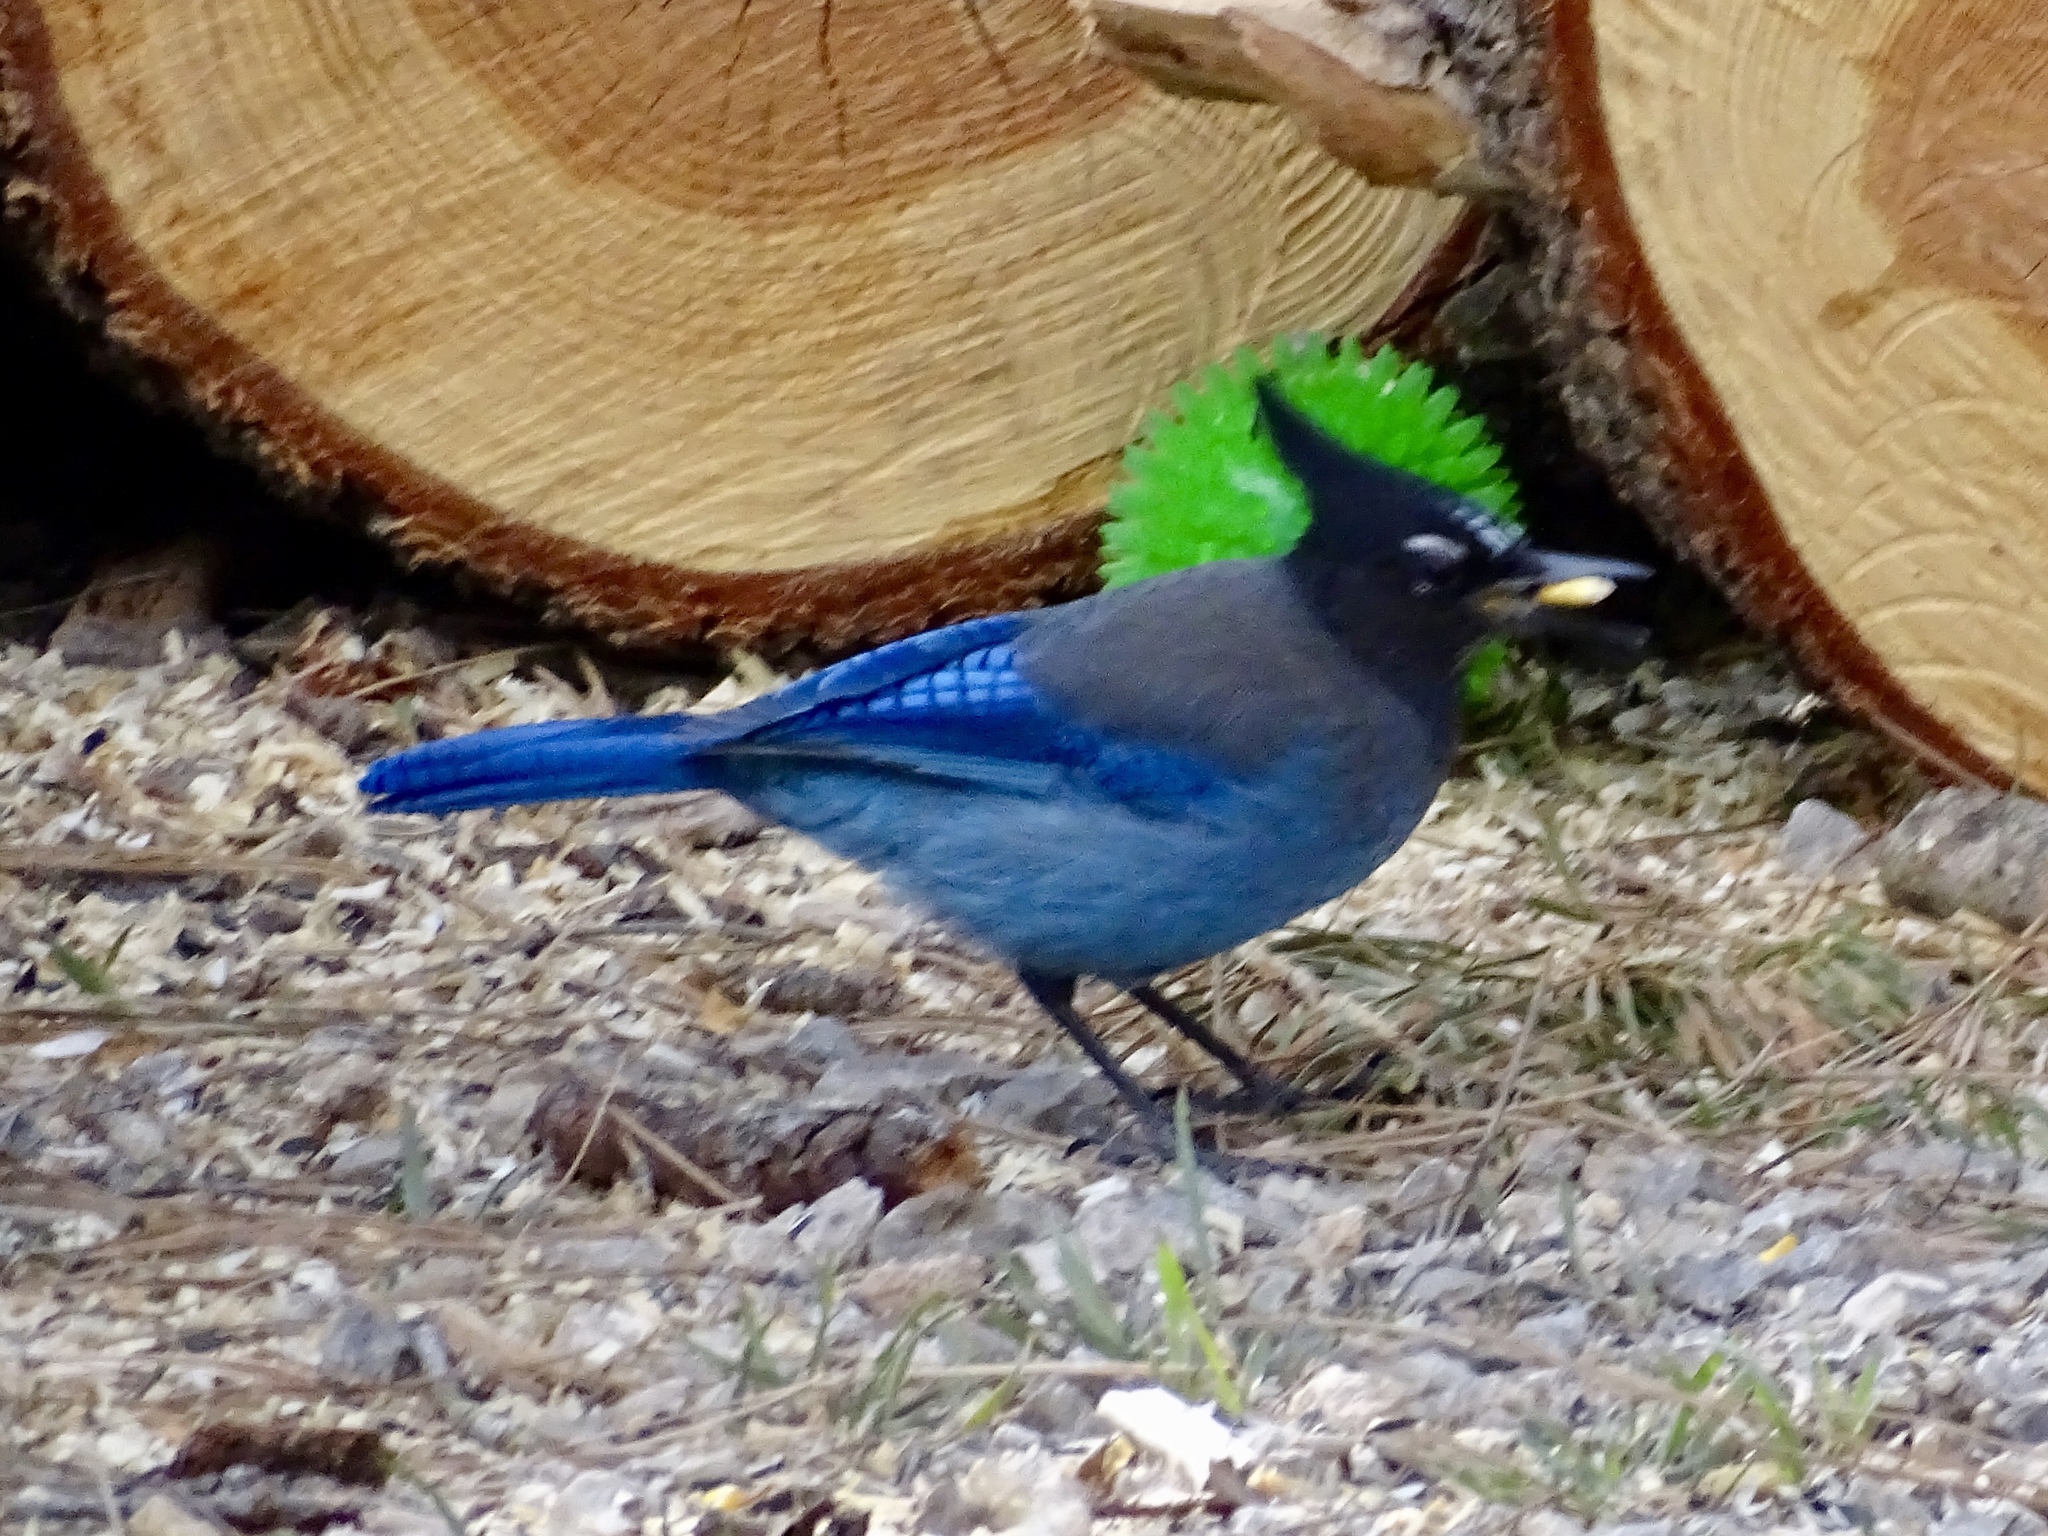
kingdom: Animalia
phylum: Chordata
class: Aves
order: Passeriformes
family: Corvidae
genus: Cyanocitta
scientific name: Cyanocitta stelleri
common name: Steller's jay
